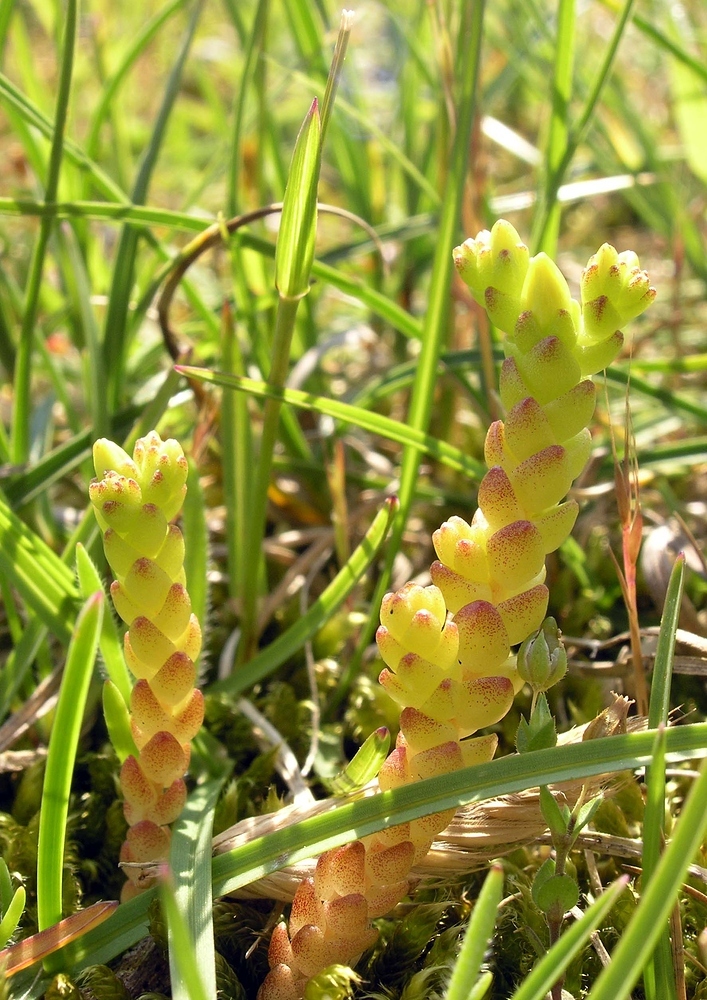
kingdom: Plantae
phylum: Tracheophyta
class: Magnoliopsida
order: Saxifragales
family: Crassulaceae
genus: Sedum
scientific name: Sedum acre
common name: Biting stonecrop
